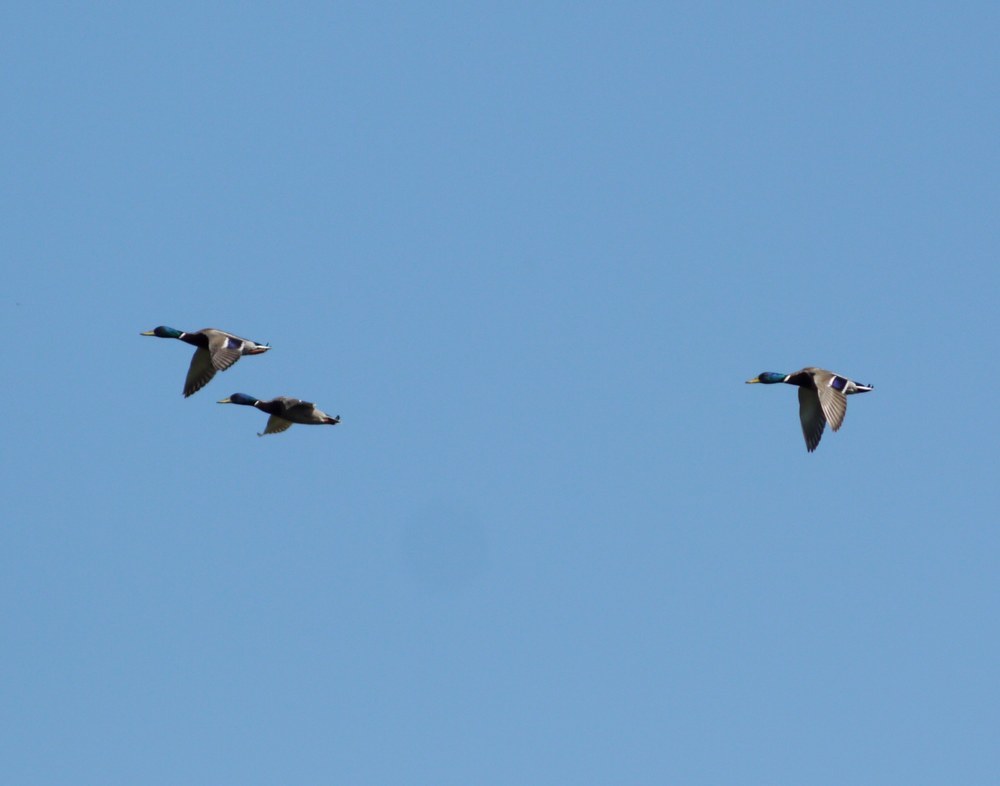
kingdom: Animalia
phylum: Chordata
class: Aves
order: Anseriformes
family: Anatidae
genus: Anas
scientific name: Anas platyrhynchos
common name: Mallard
